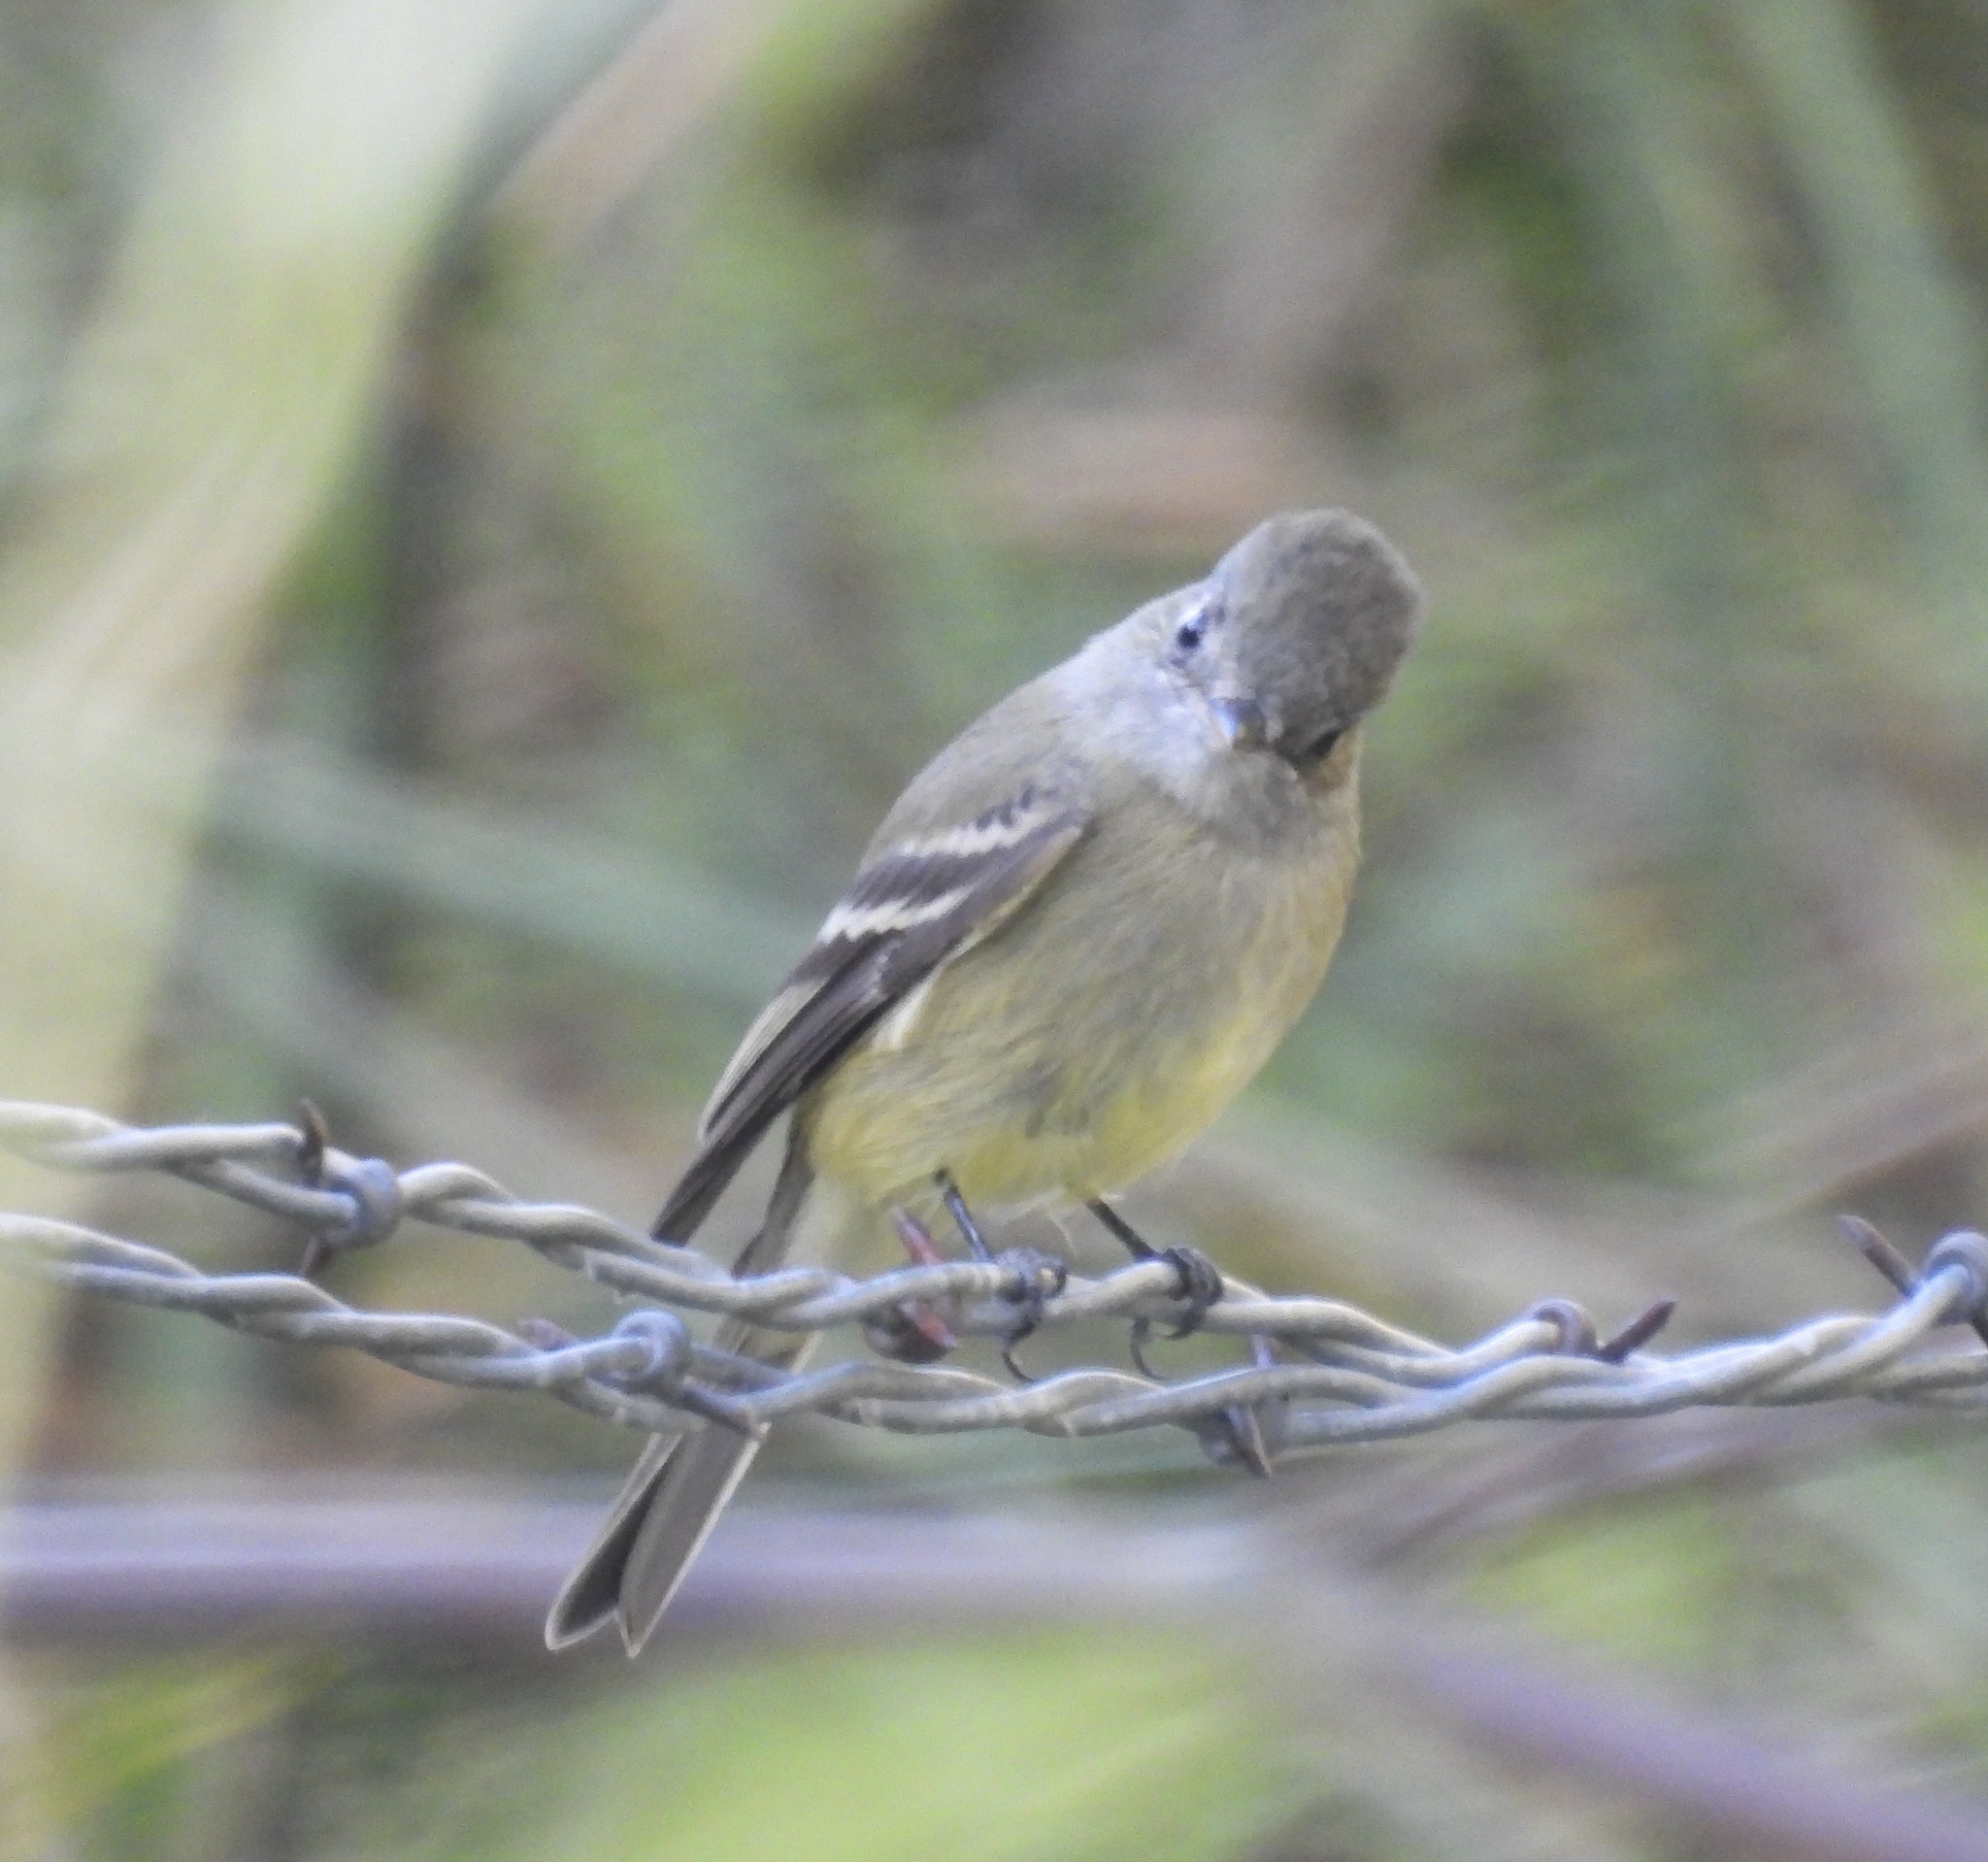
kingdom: Animalia
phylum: Chordata
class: Aves
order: Passeriformes
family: Tyrannidae
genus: Empidonax
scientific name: Empidonax hammondii
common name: Hammond's flycatcher
